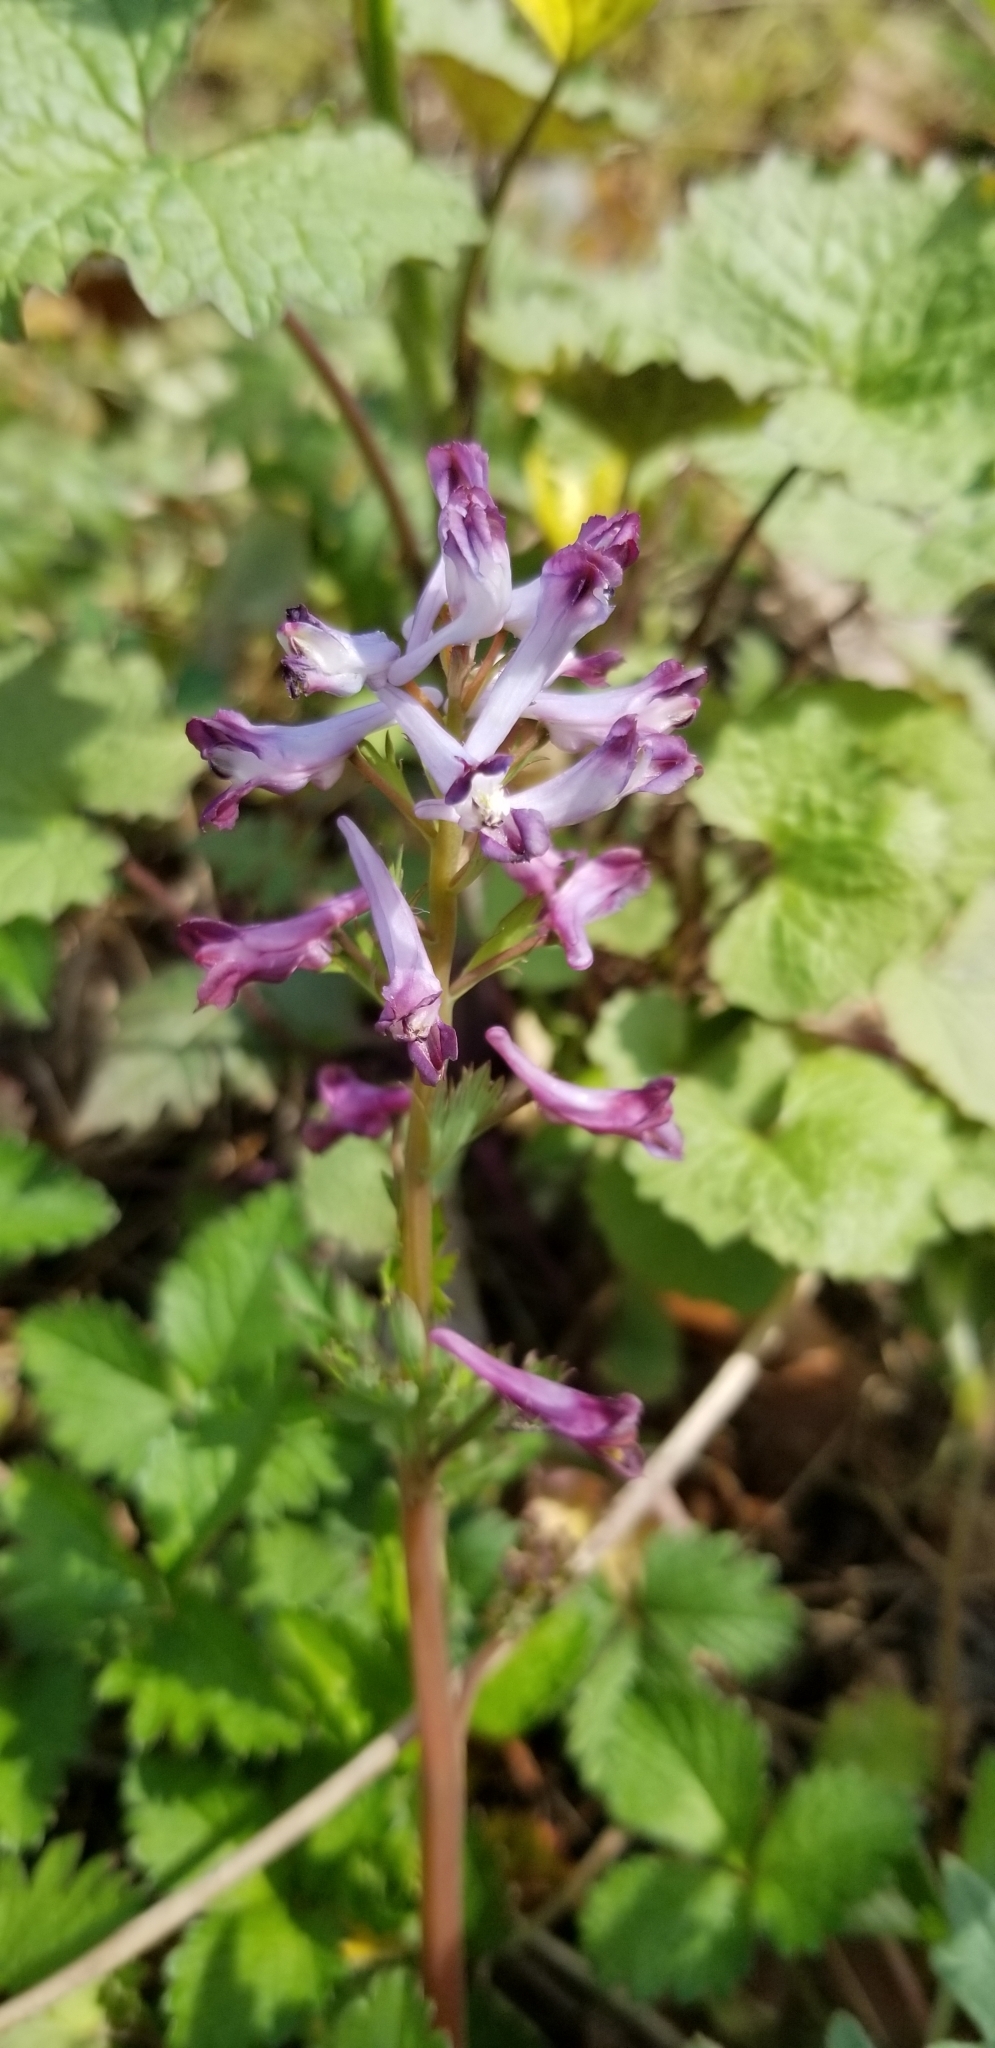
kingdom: Plantae
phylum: Tracheophyta
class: Magnoliopsida
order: Ranunculales
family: Papaveraceae
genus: Corydalis
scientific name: Corydalis incisa
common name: Incised fumewort
